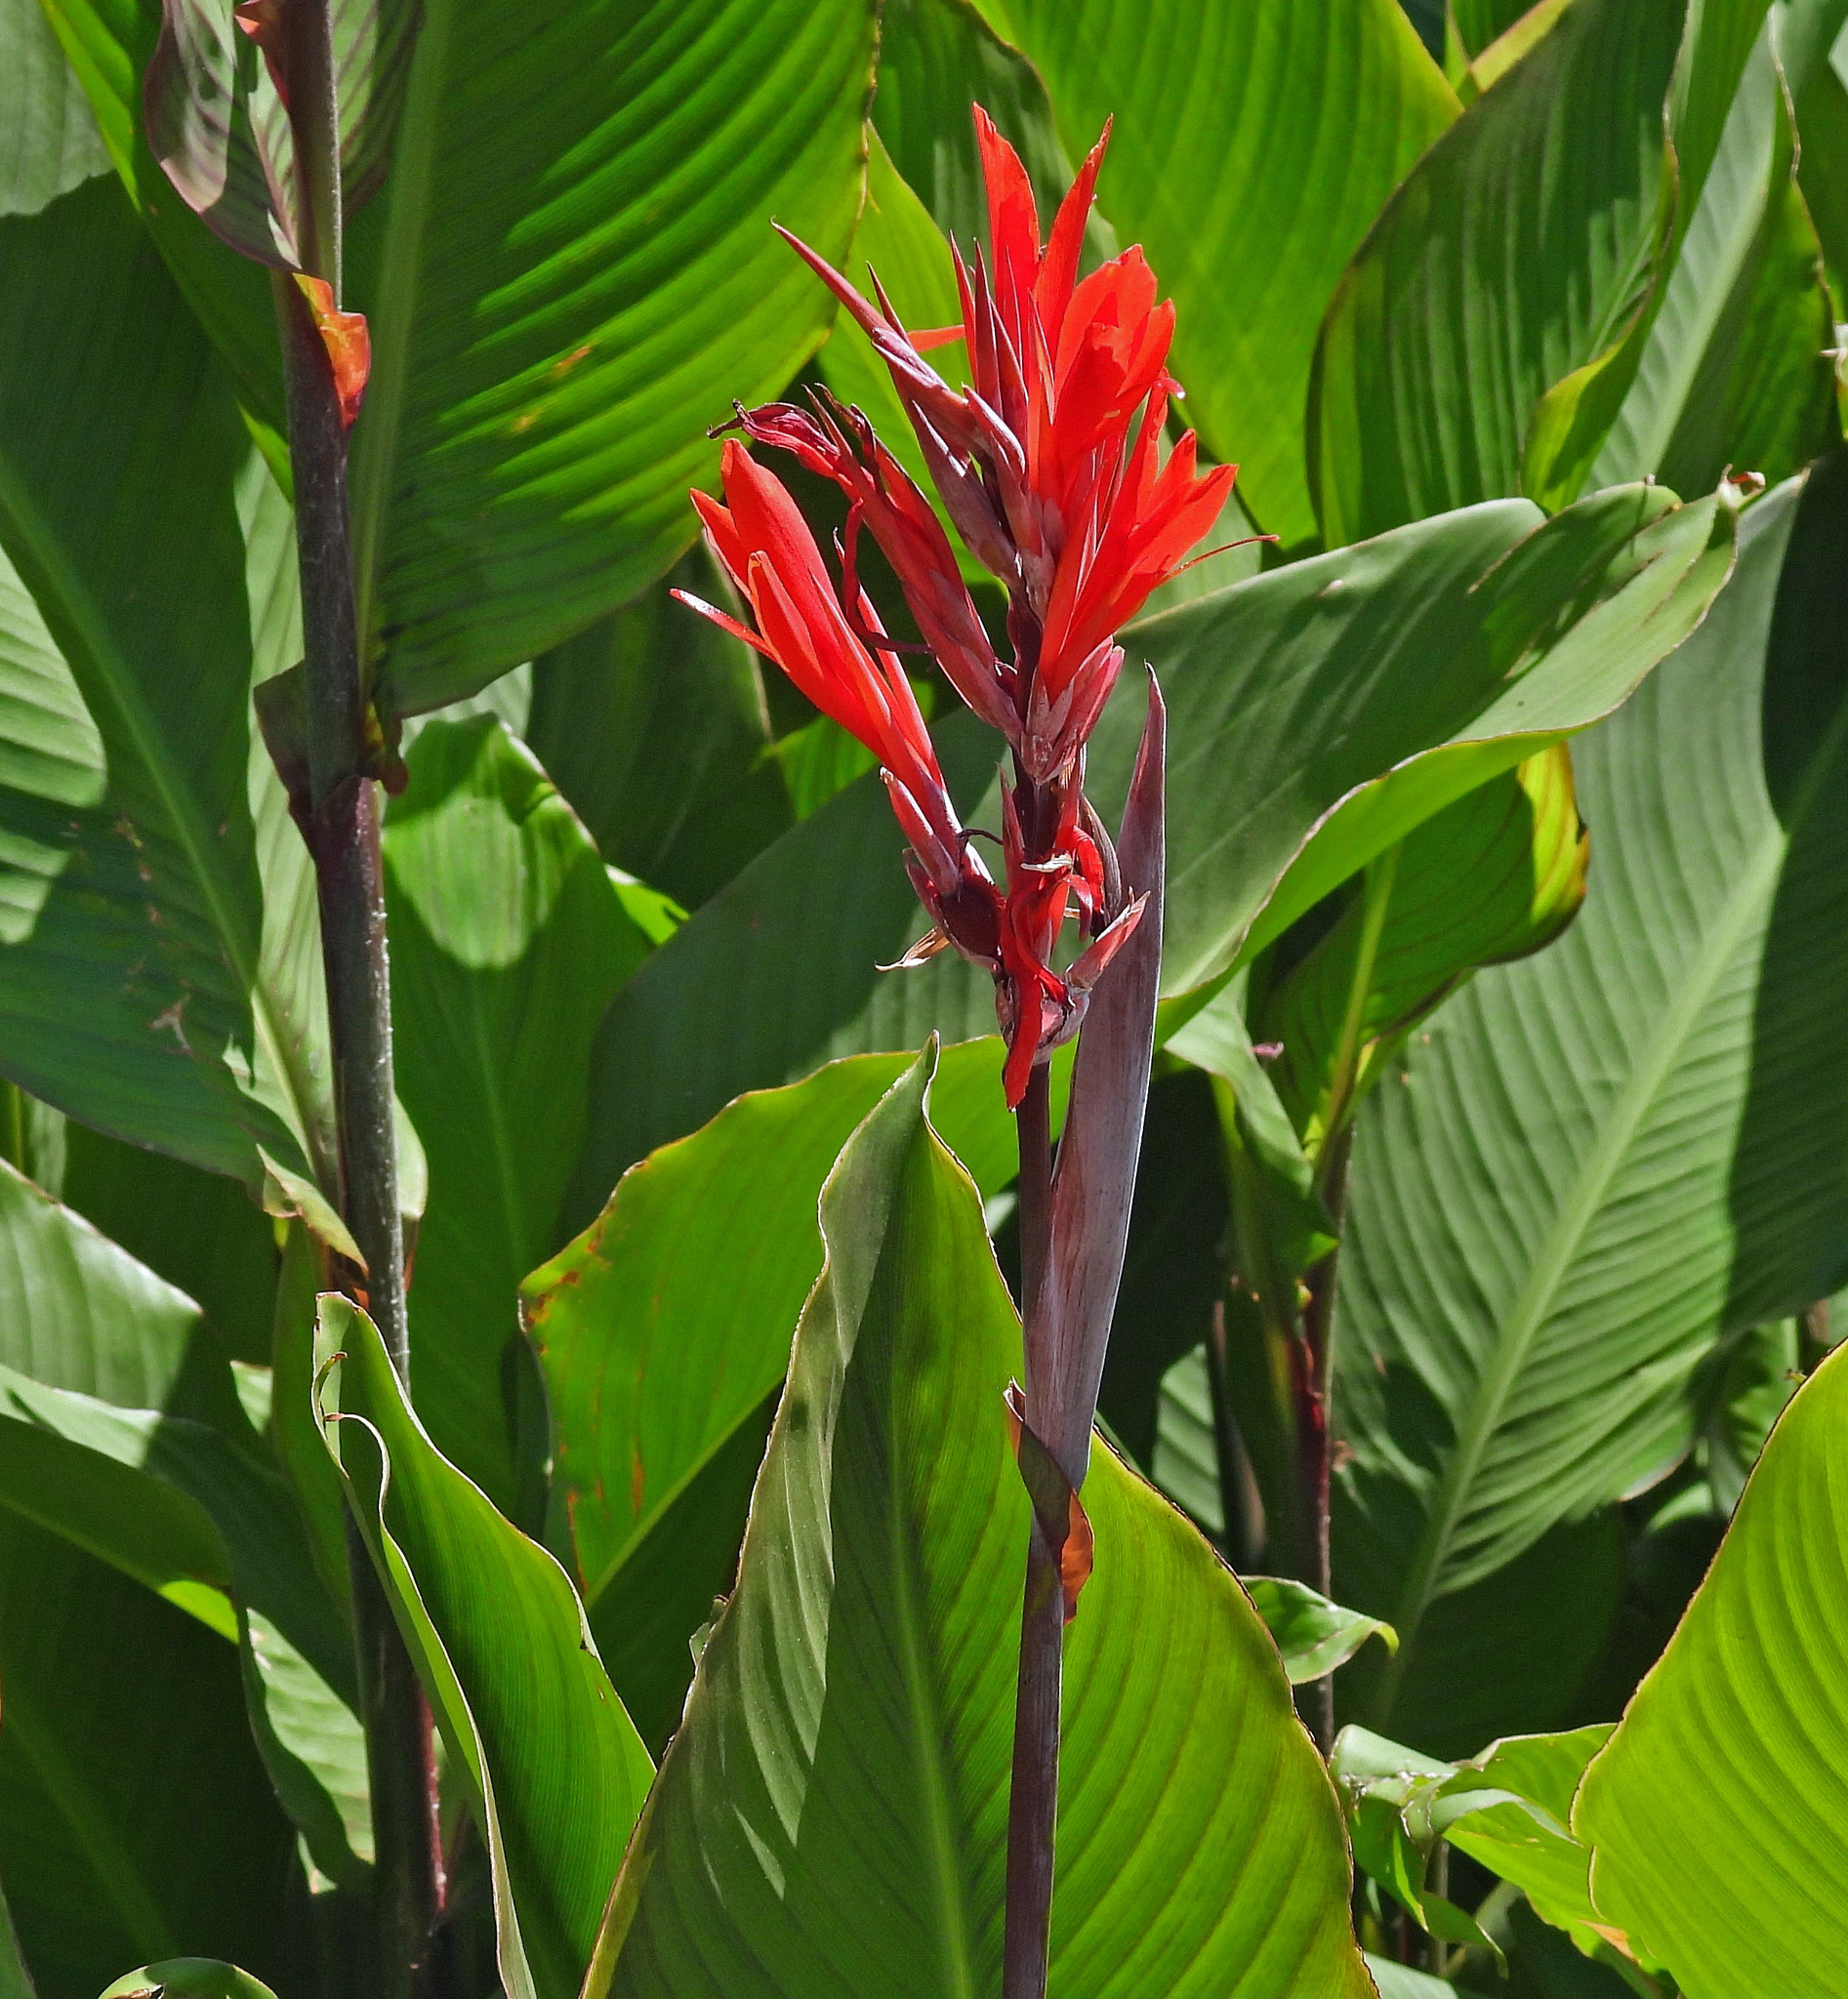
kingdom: Plantae
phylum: Tracheophyta
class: Liliopsida
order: Zingiberales
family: Cannaceae
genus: Canna
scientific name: Canna indica
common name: Indian shot
